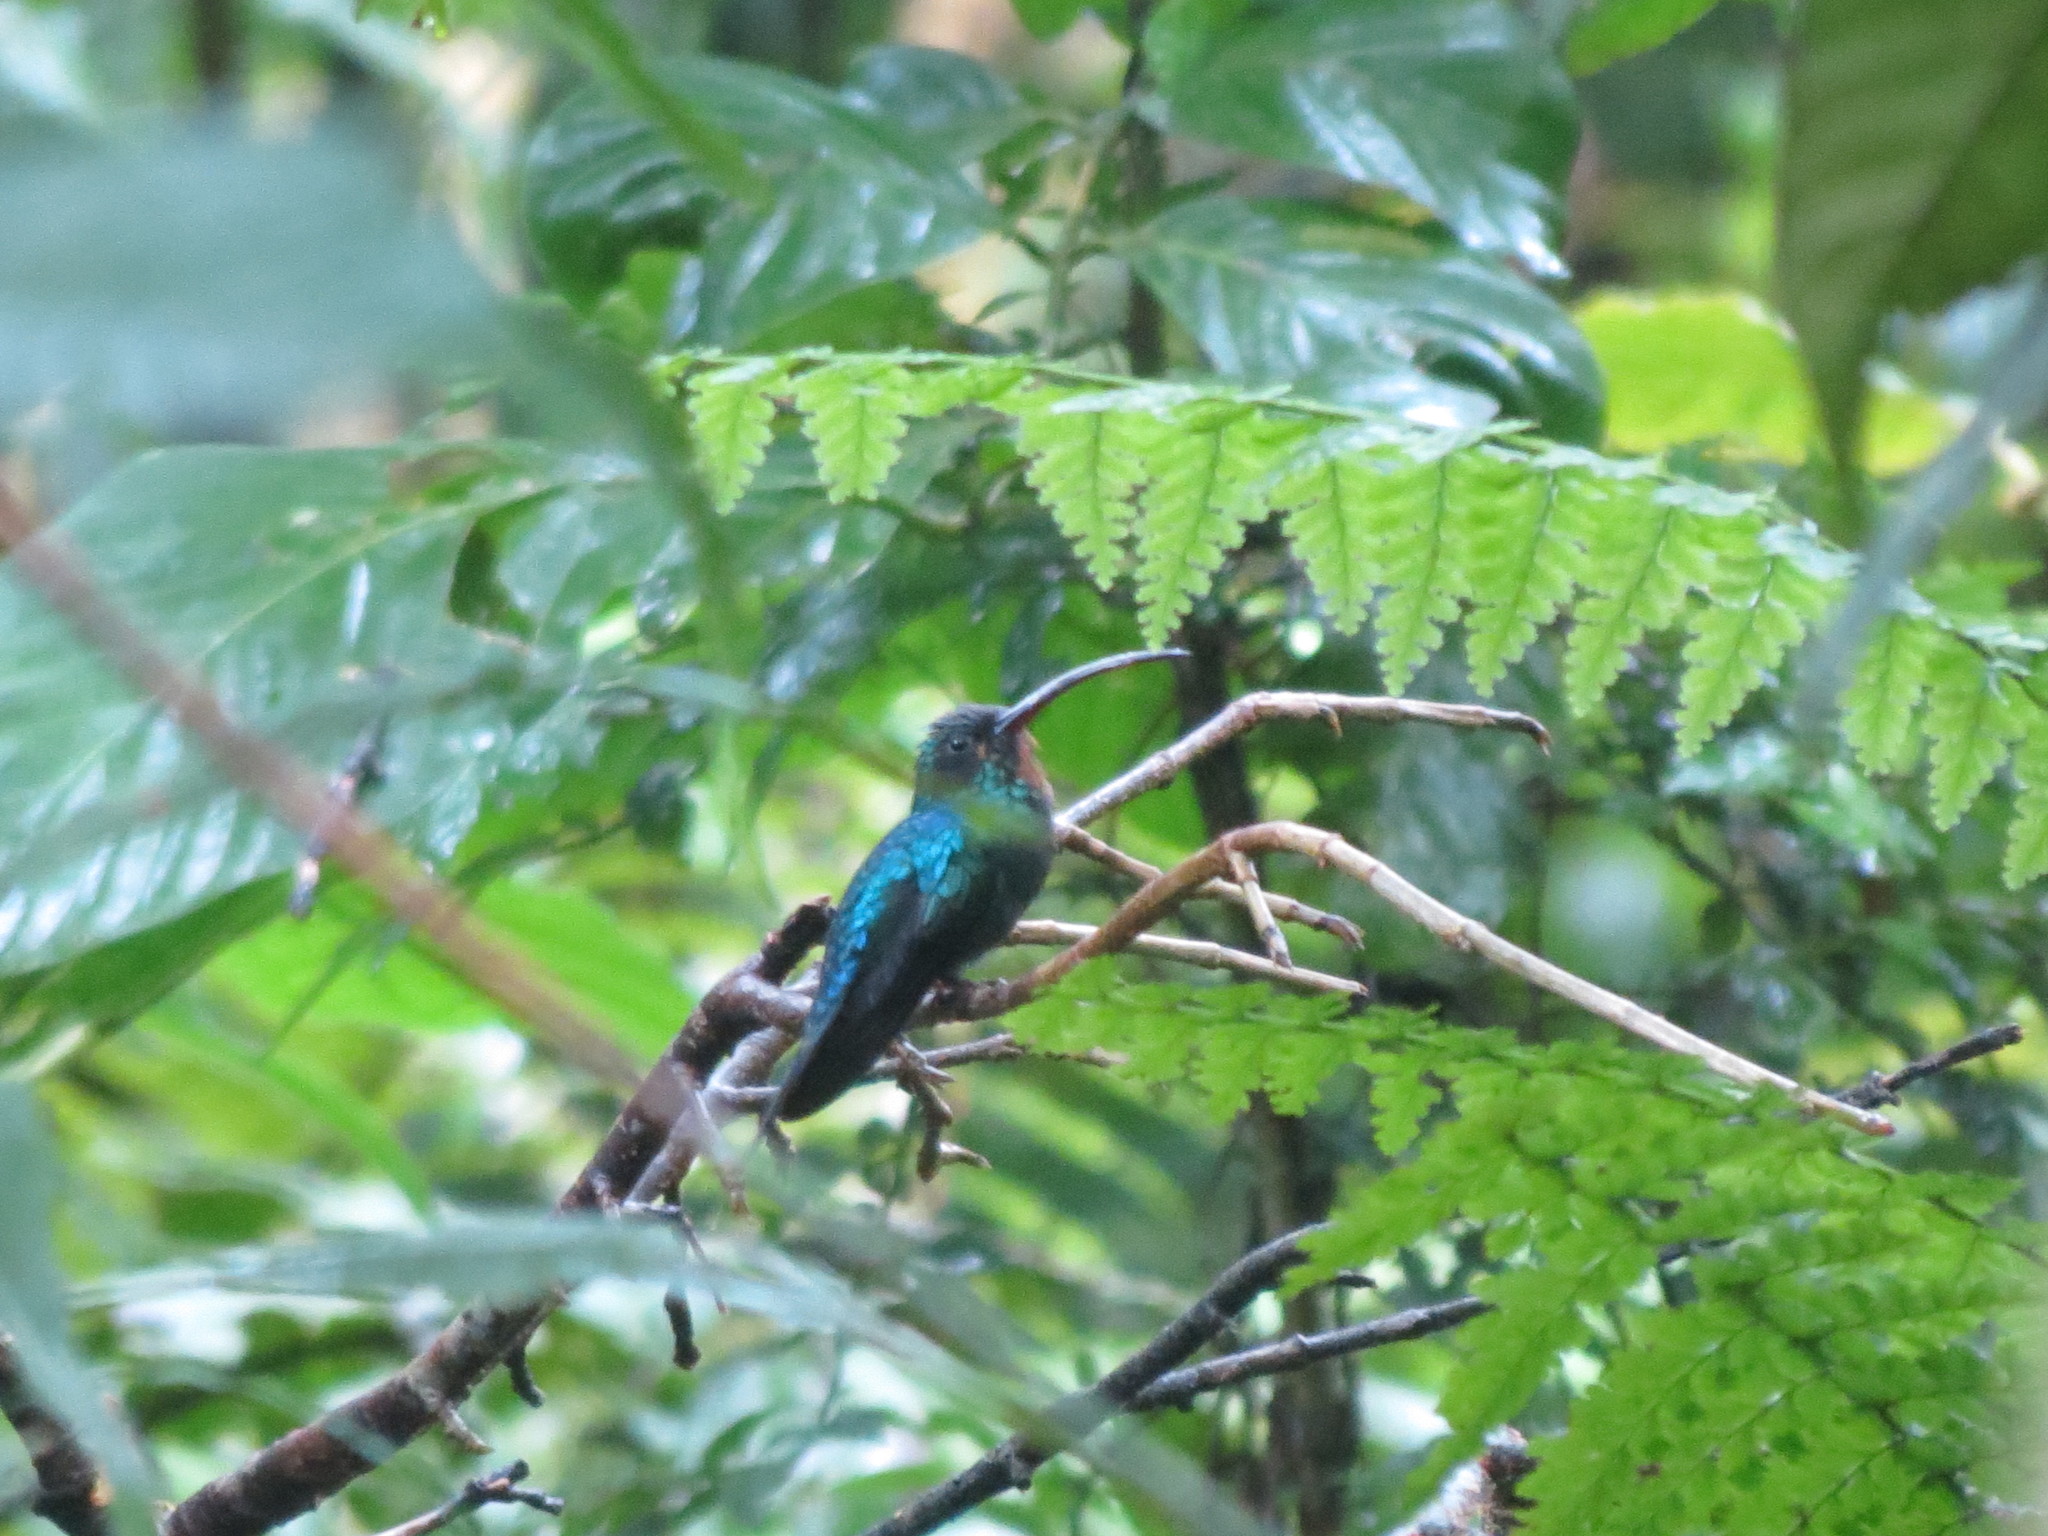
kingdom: Animalia
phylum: Chordata
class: Aves
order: Apodiformes
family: Trochilidae
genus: Phaethornis
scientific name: Phaethornis guy
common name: Green hermit
